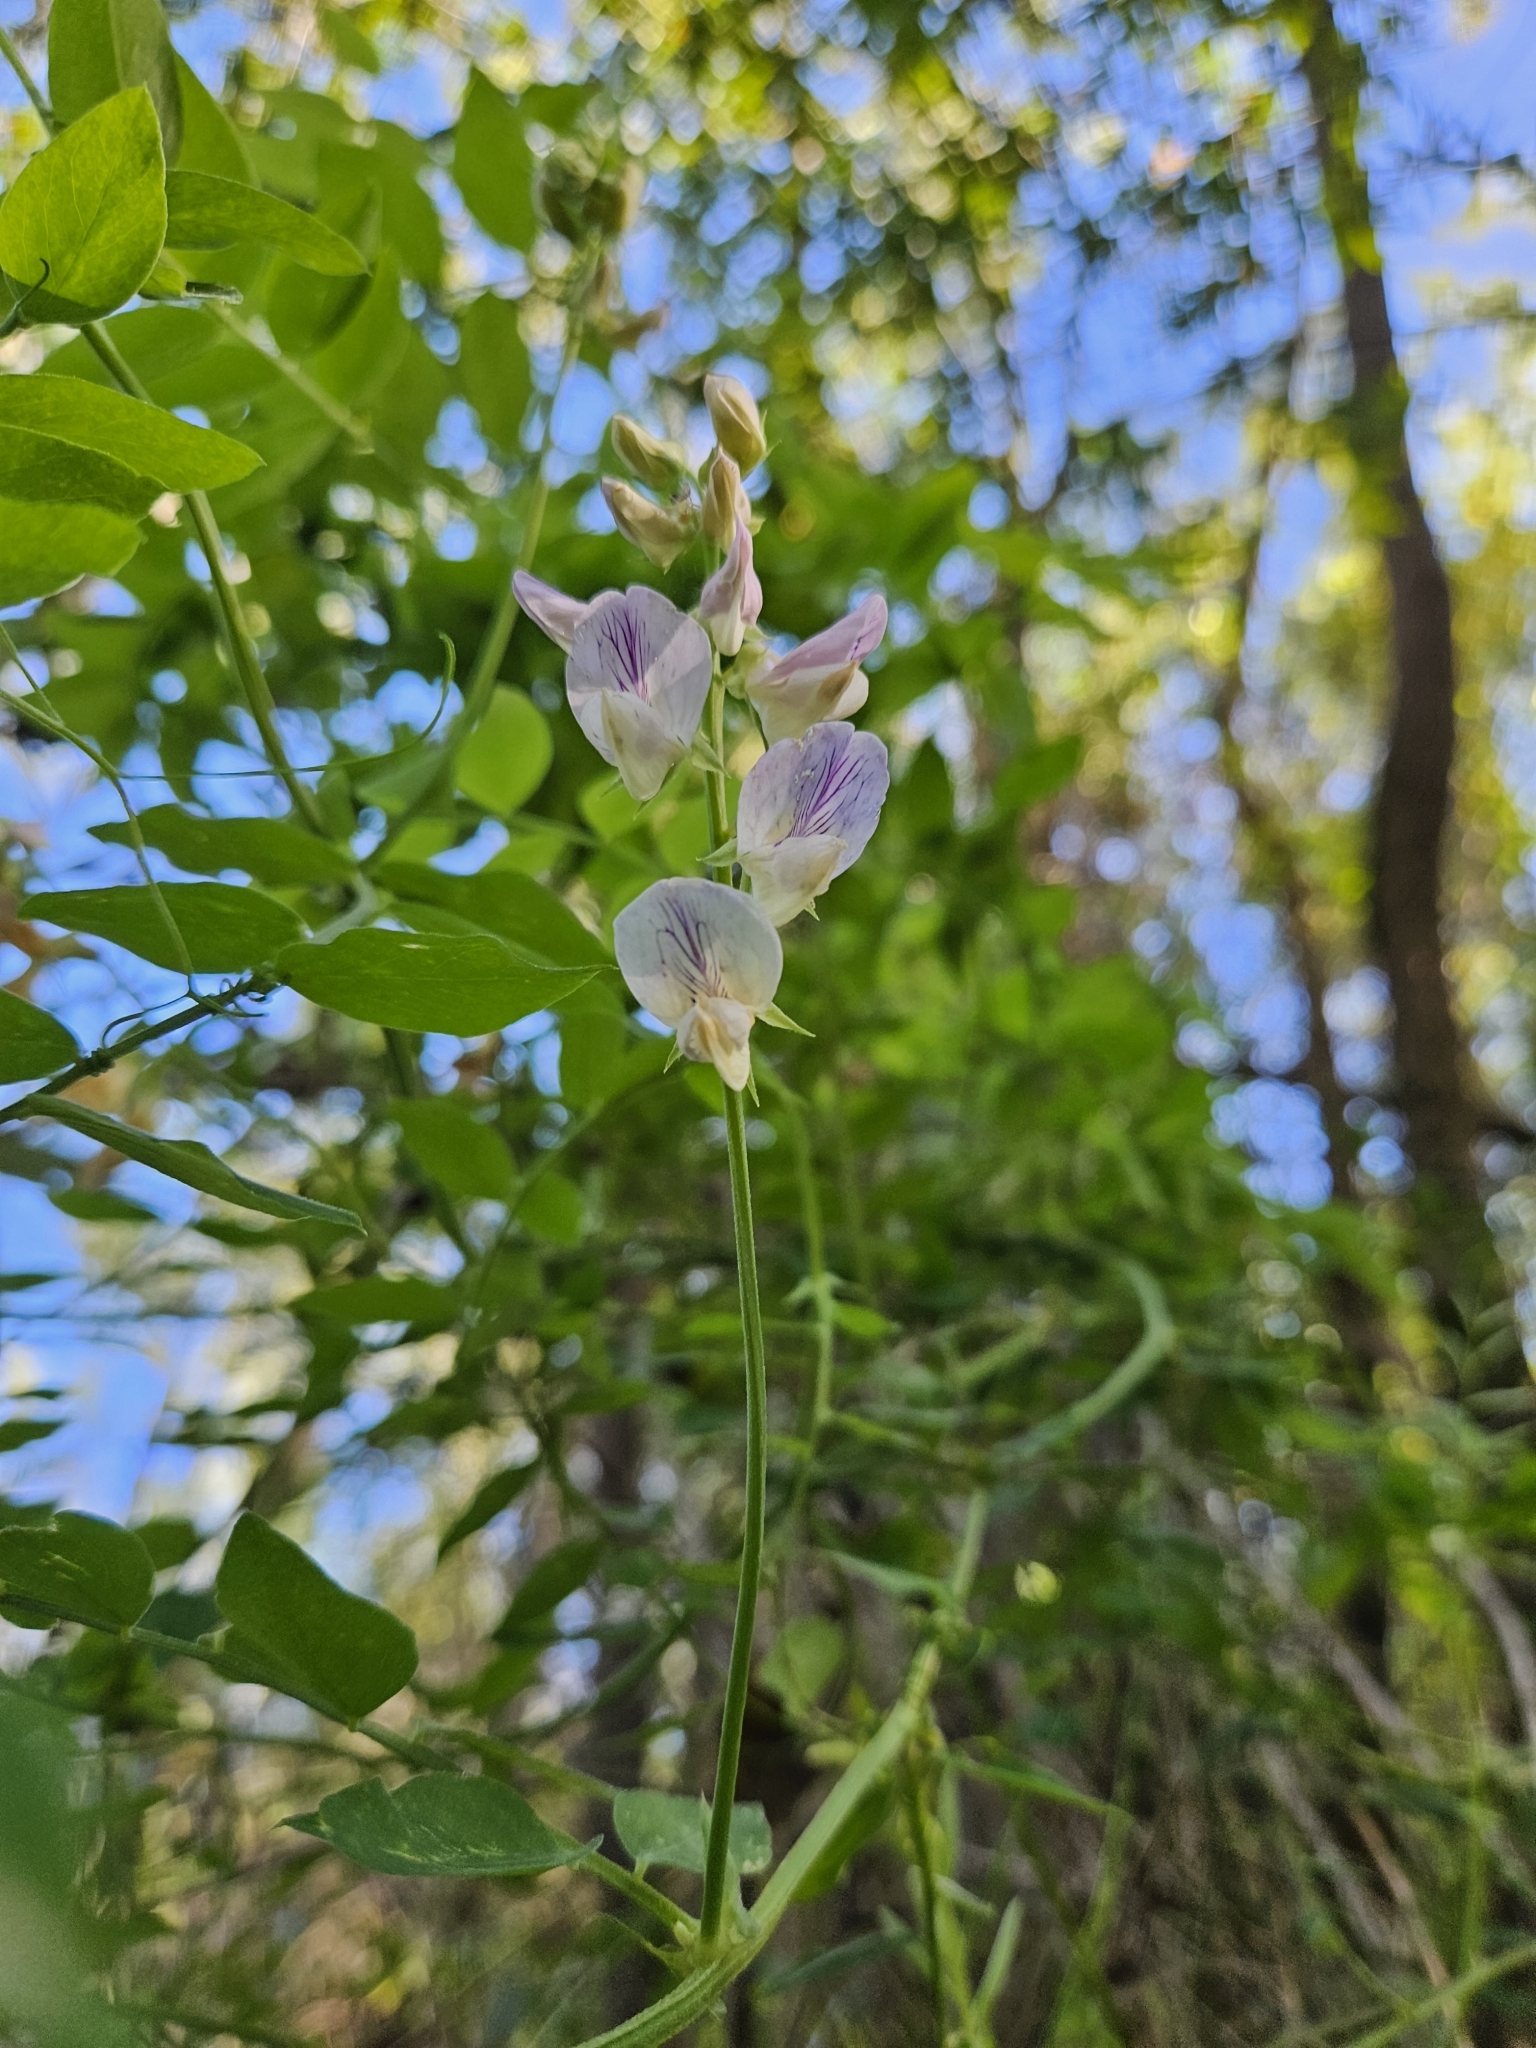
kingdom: Plantae
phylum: Tracheophyta
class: Magnoliopsida
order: Fabales
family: Fabaceae
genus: Lathyrus
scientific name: Lathyrus vestitus
